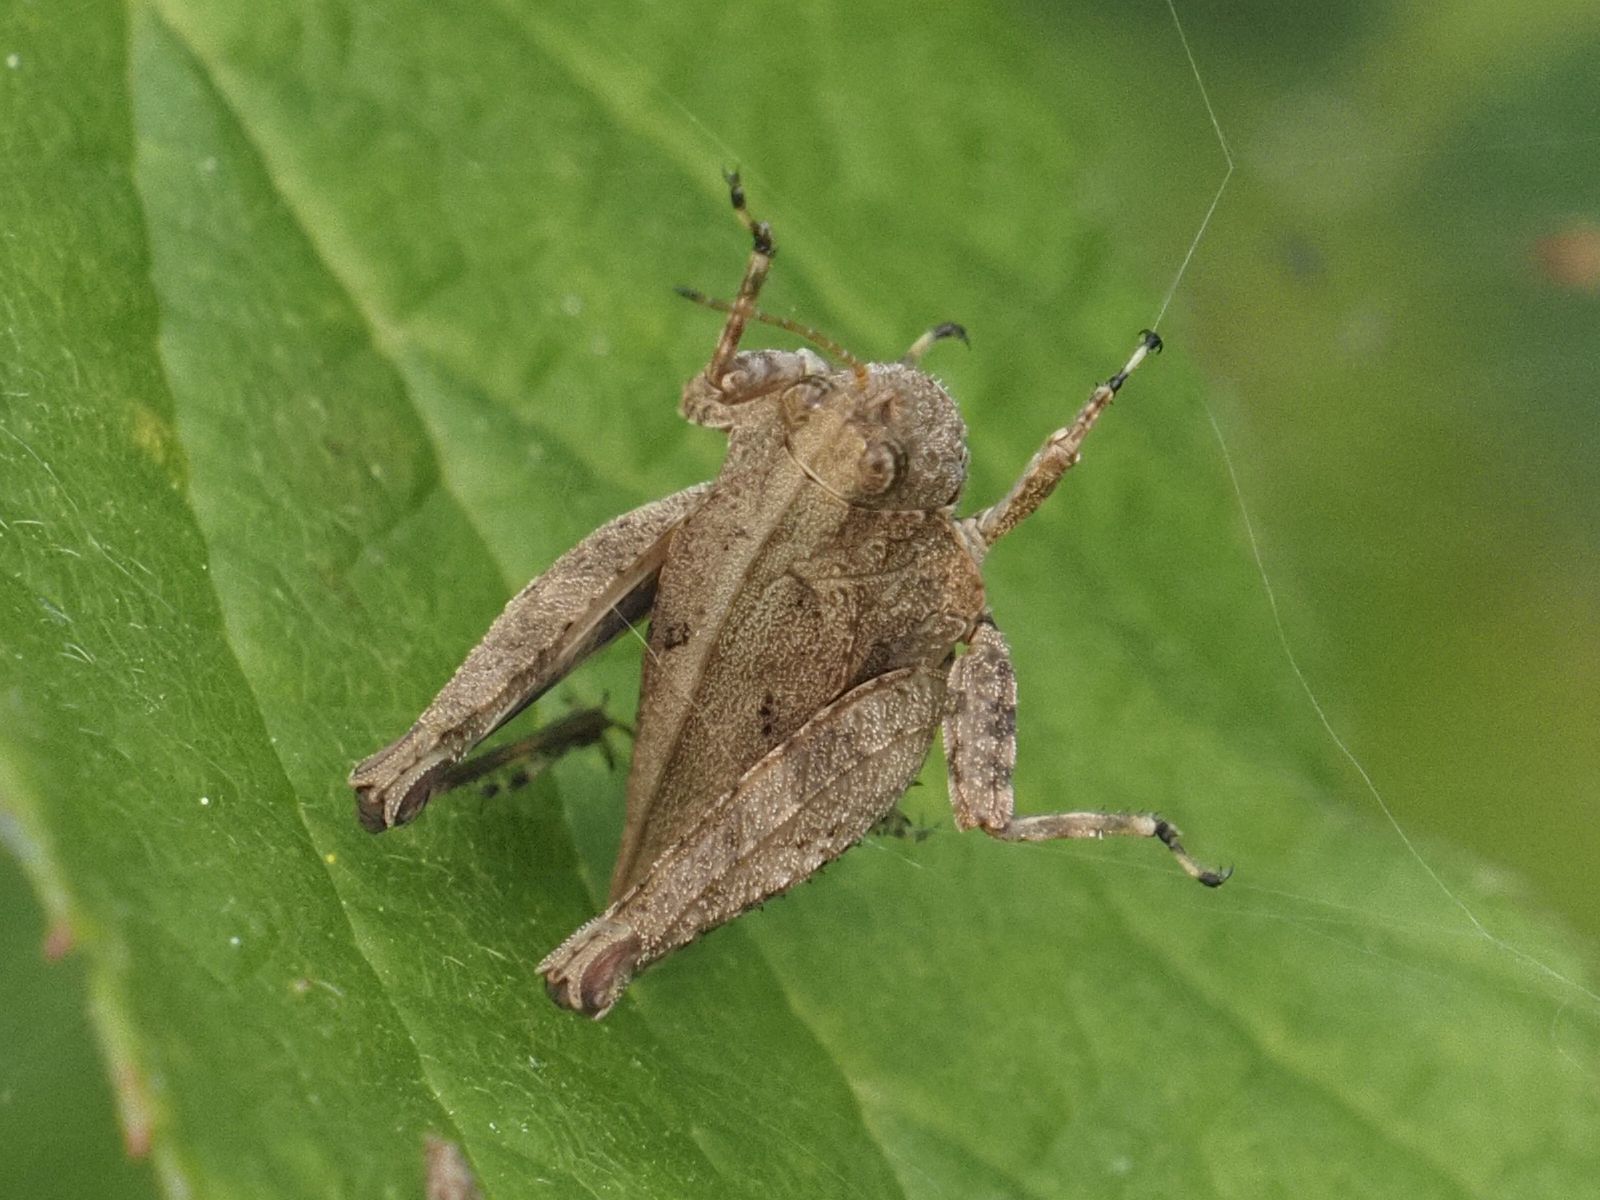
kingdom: Animalia
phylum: Arthropoda
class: Insecta
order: Orthoptera
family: Tetrigidae
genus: Tetrix
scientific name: Tetrix tenuicornis
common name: Long-horned groundhopper
